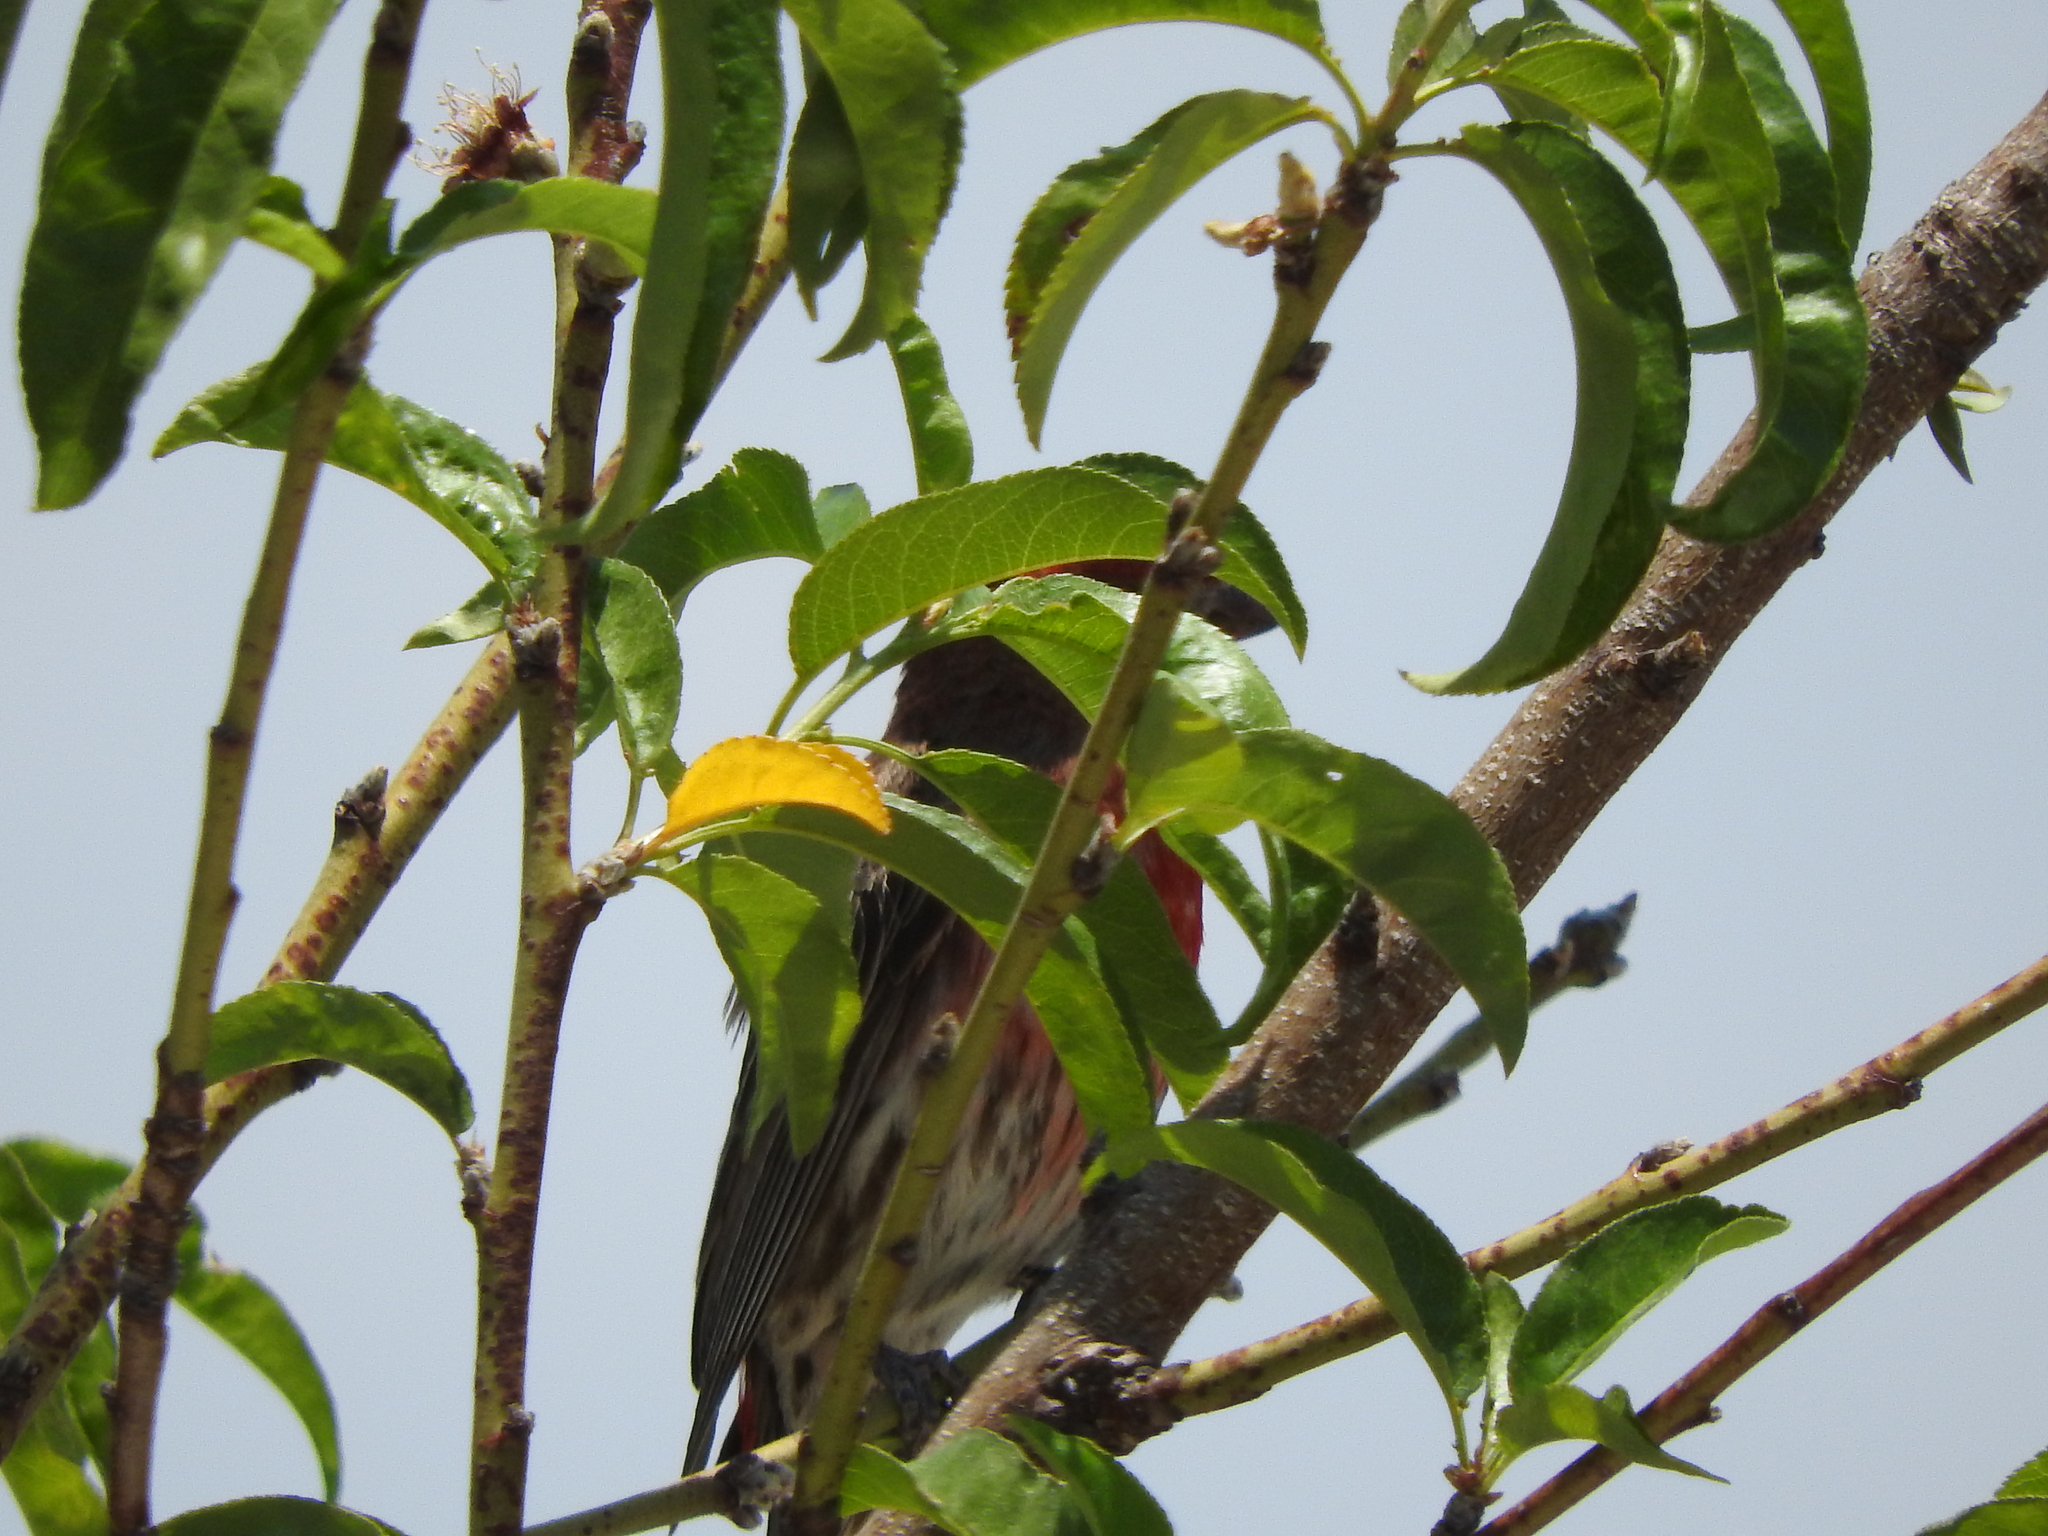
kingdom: Animalia
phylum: Chordata
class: Aves
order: Passeriformes
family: Fringillidae
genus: Haemorhous
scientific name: Haemorhous mexicanus
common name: House finch
